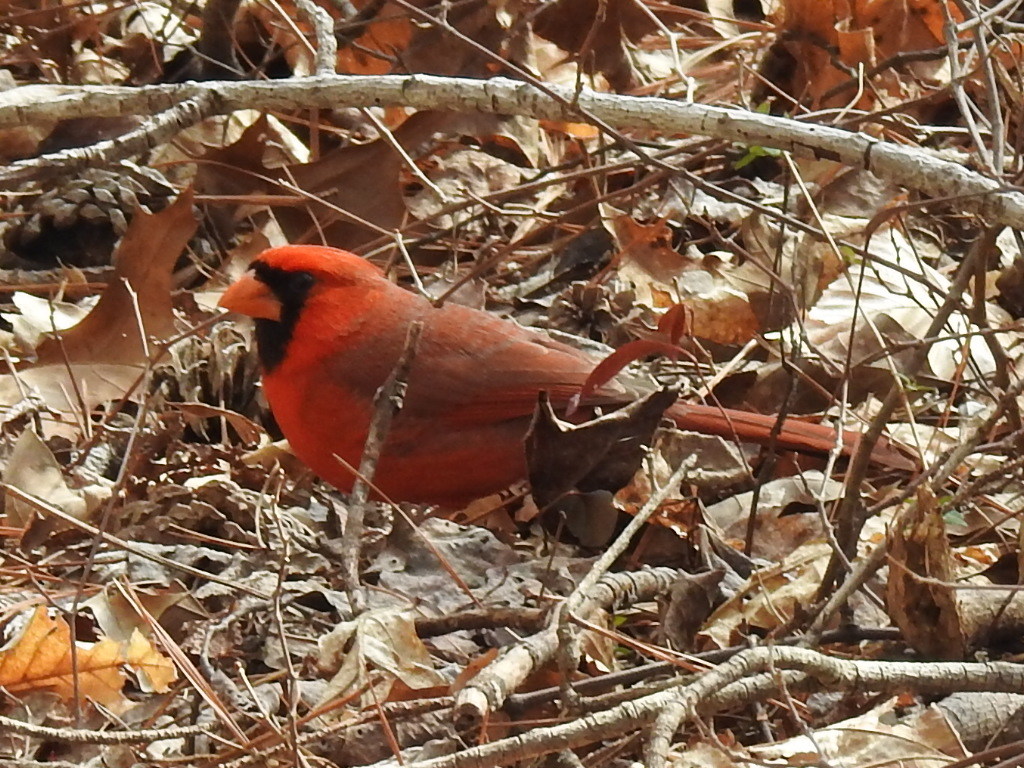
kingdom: Animalia
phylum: Chordata
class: Aves
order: Passeriformes
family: Cardinalidae
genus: Cardinalis
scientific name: Cardinalis cardinalis
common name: Northern cardinal
